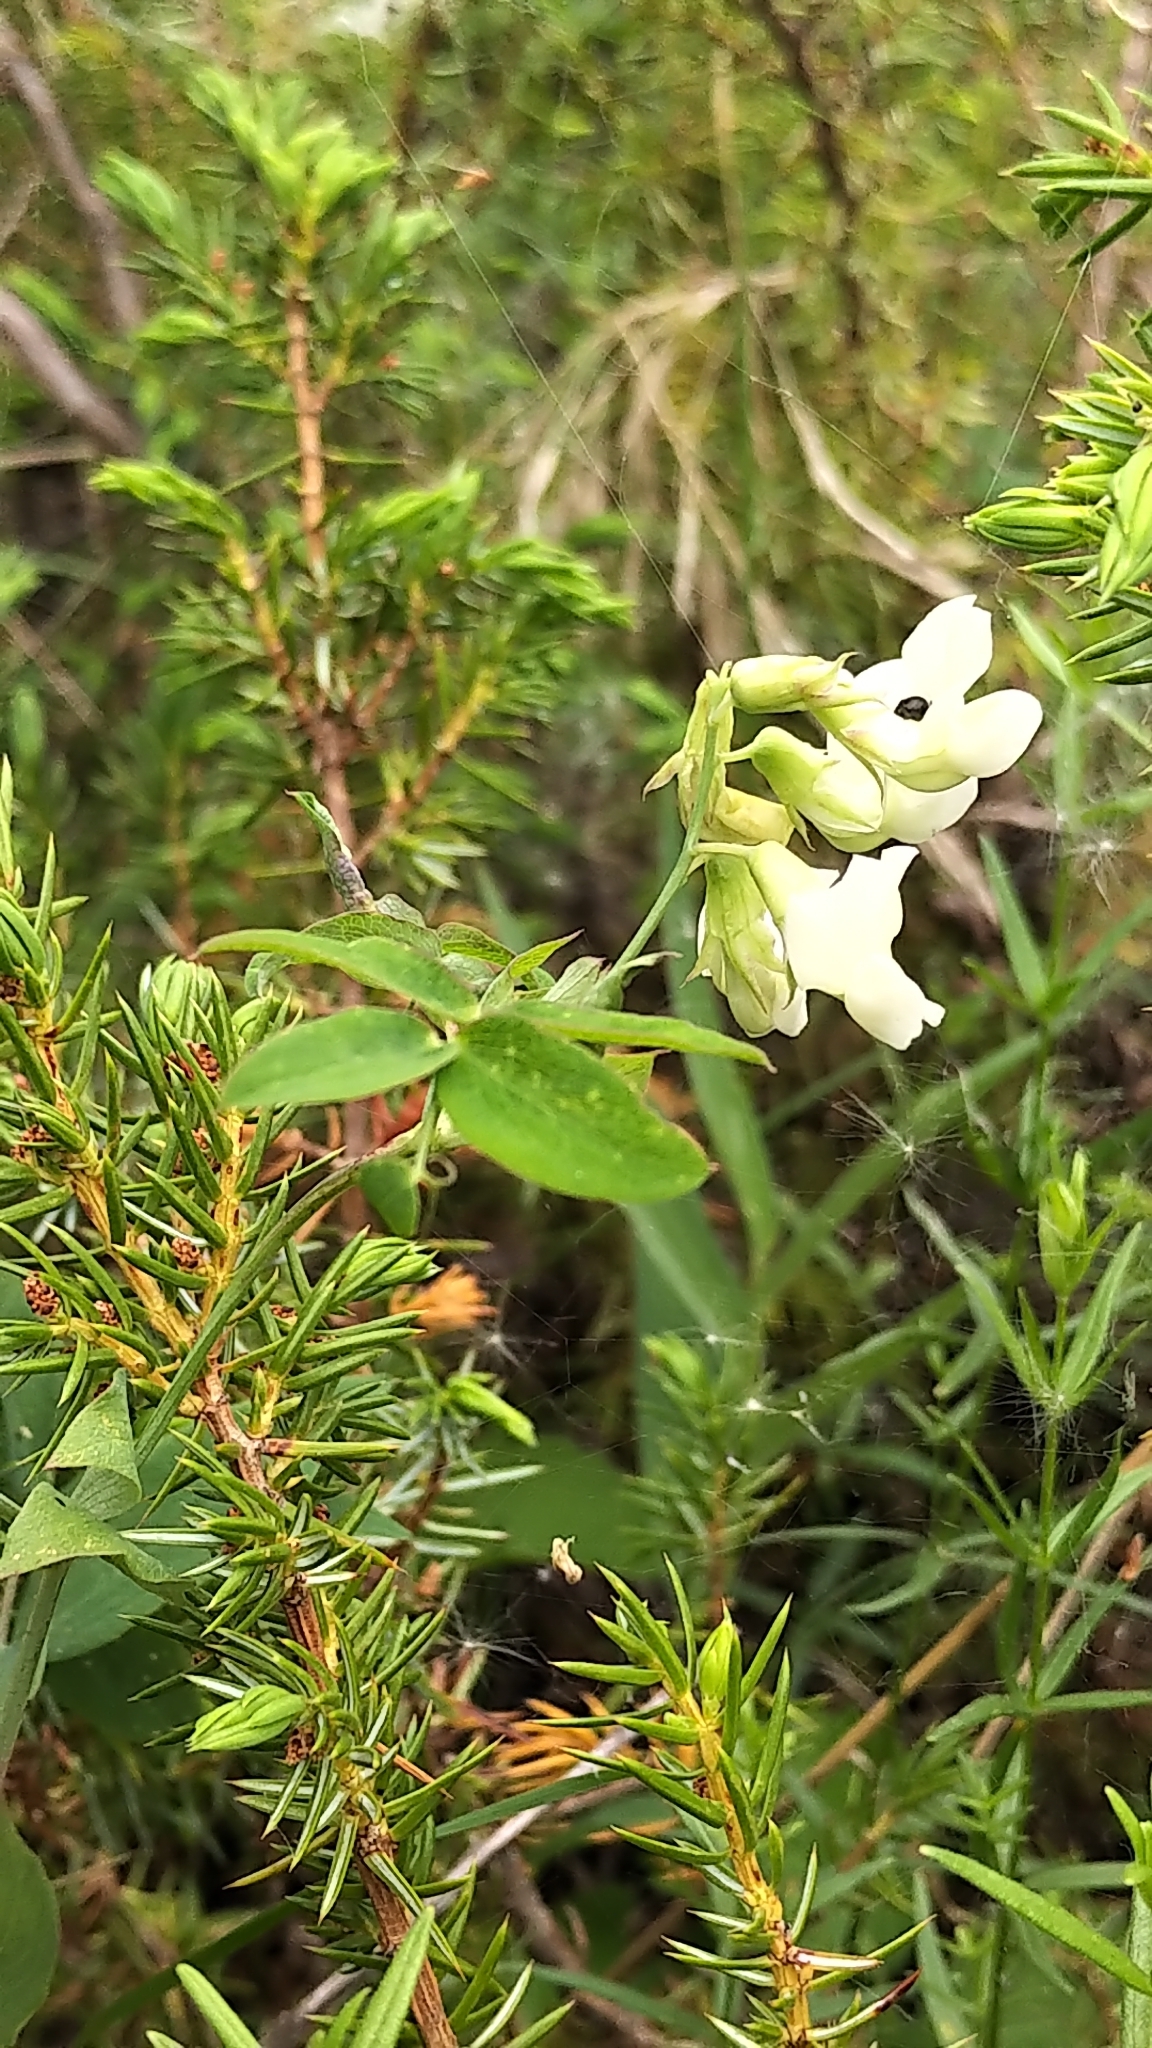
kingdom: Plantae
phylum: Tracheophyta
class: Magnoliopsida
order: Fabales
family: Fabaceae
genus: Lathyrus
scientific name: Lathyrus ochroleucus
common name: Pale vetchling
